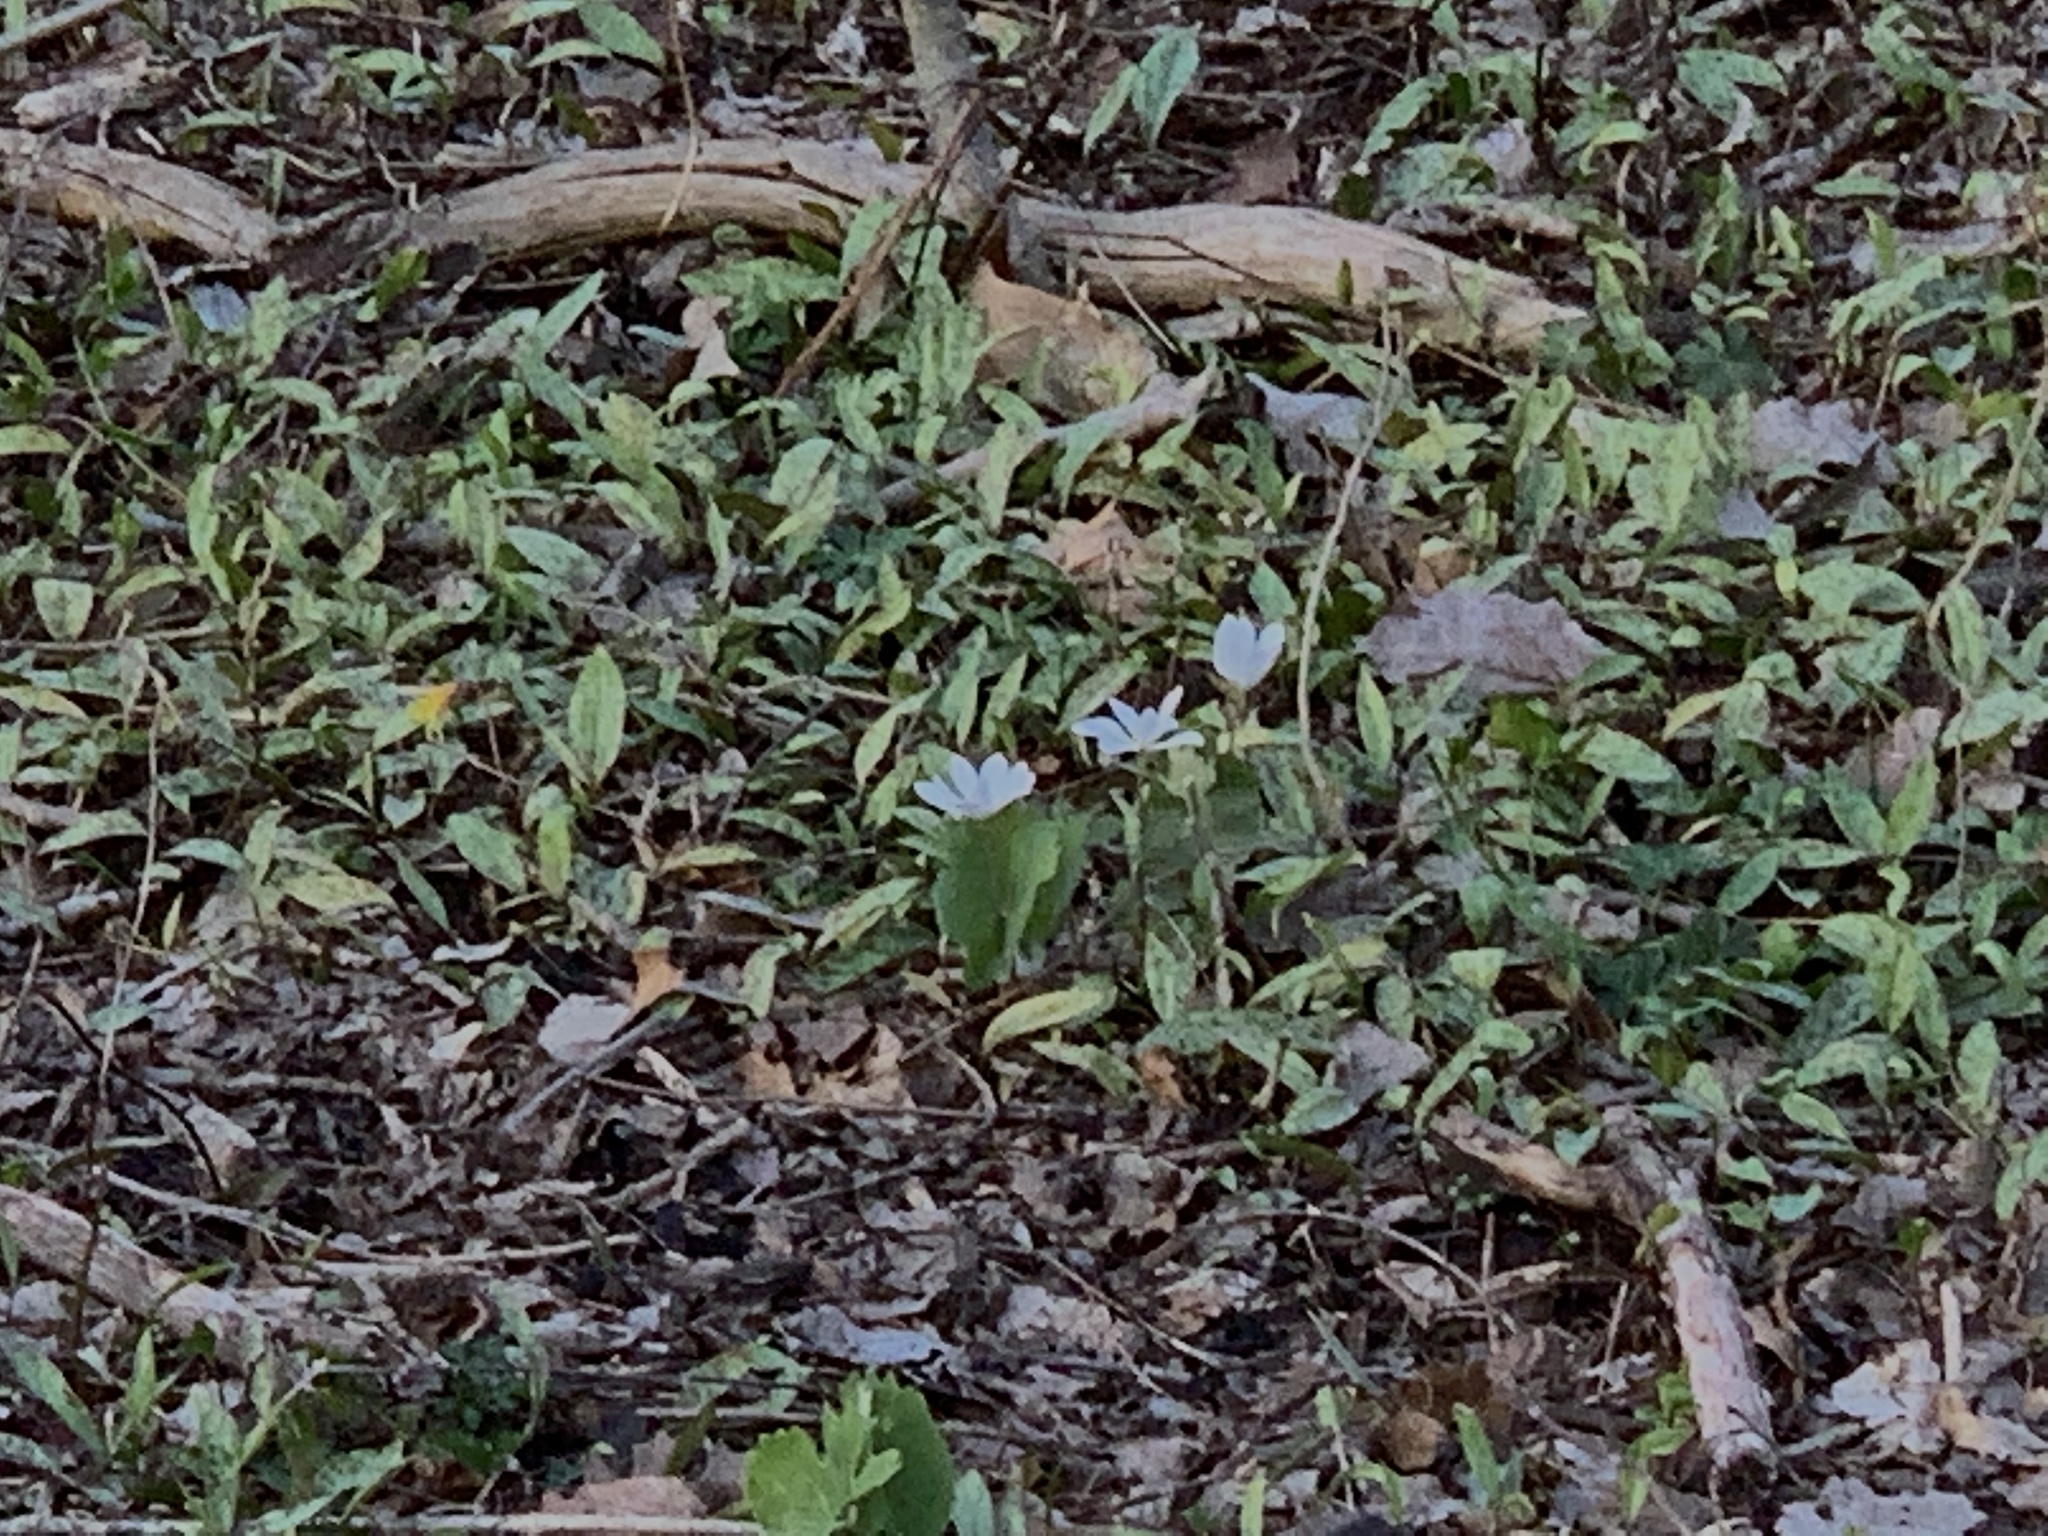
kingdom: Plantae
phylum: Tracheophyta
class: Magnoliopsida
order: Ranunculales
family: Papaveraceae
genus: Sanguinaria
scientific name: Sanguinaria canadensis
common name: Bloodroot
